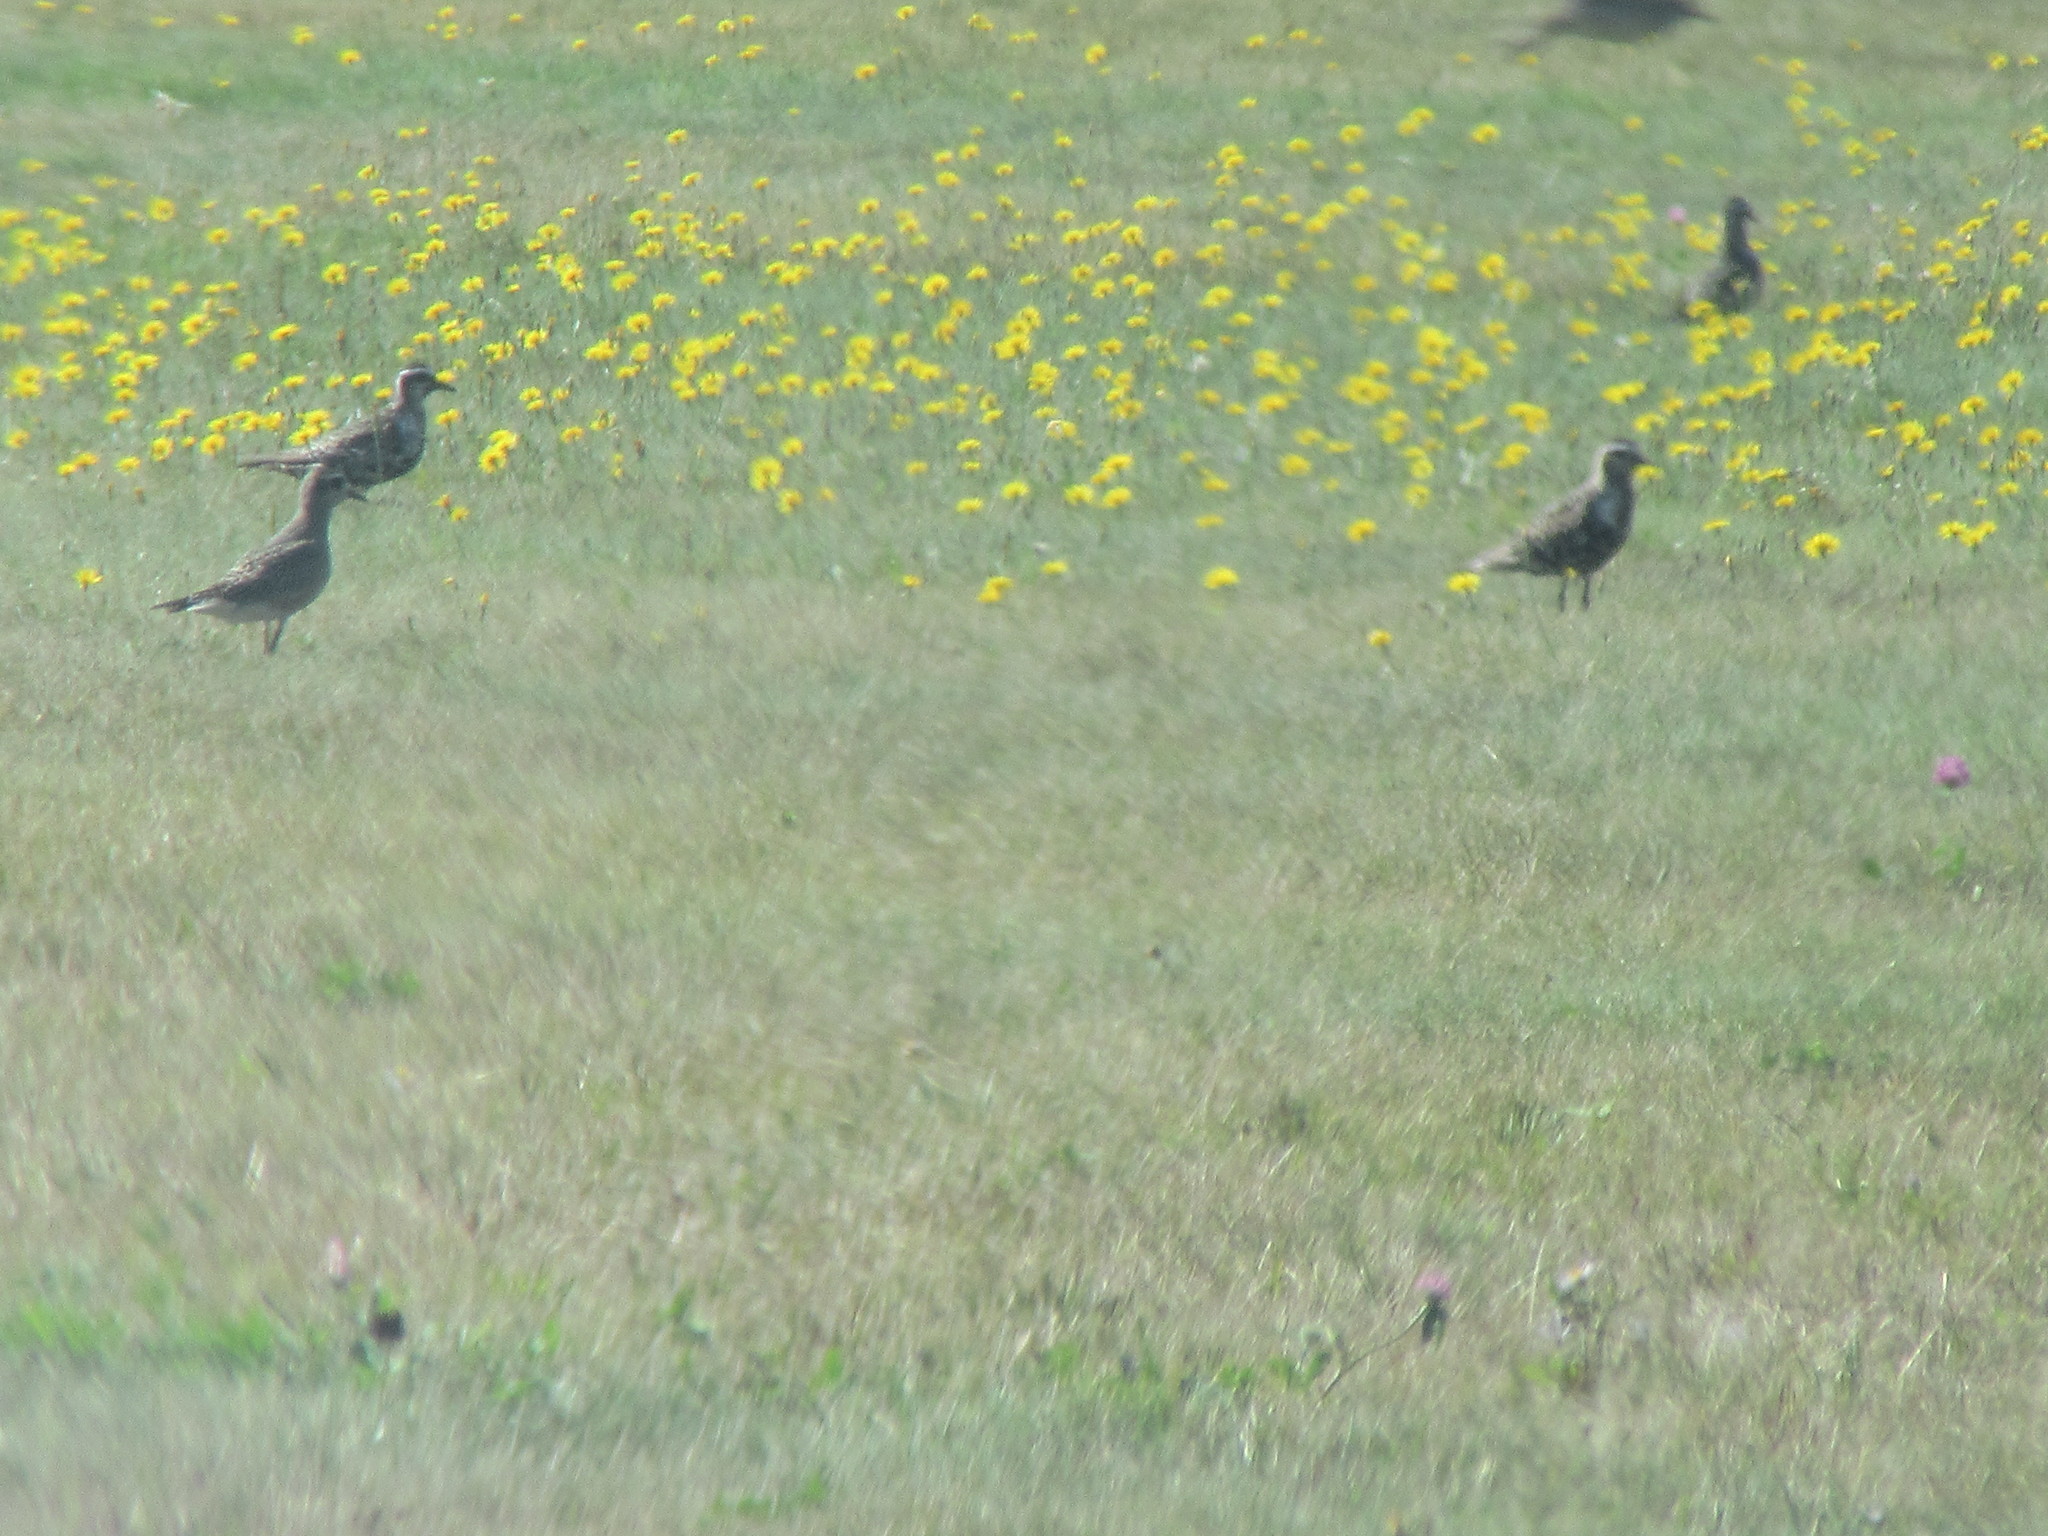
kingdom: Animalia
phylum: Chordata
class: Aves
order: Charadriiformes
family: Charadriidae
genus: Pluvialis
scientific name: Pluvialis dominica
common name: American golden plover
